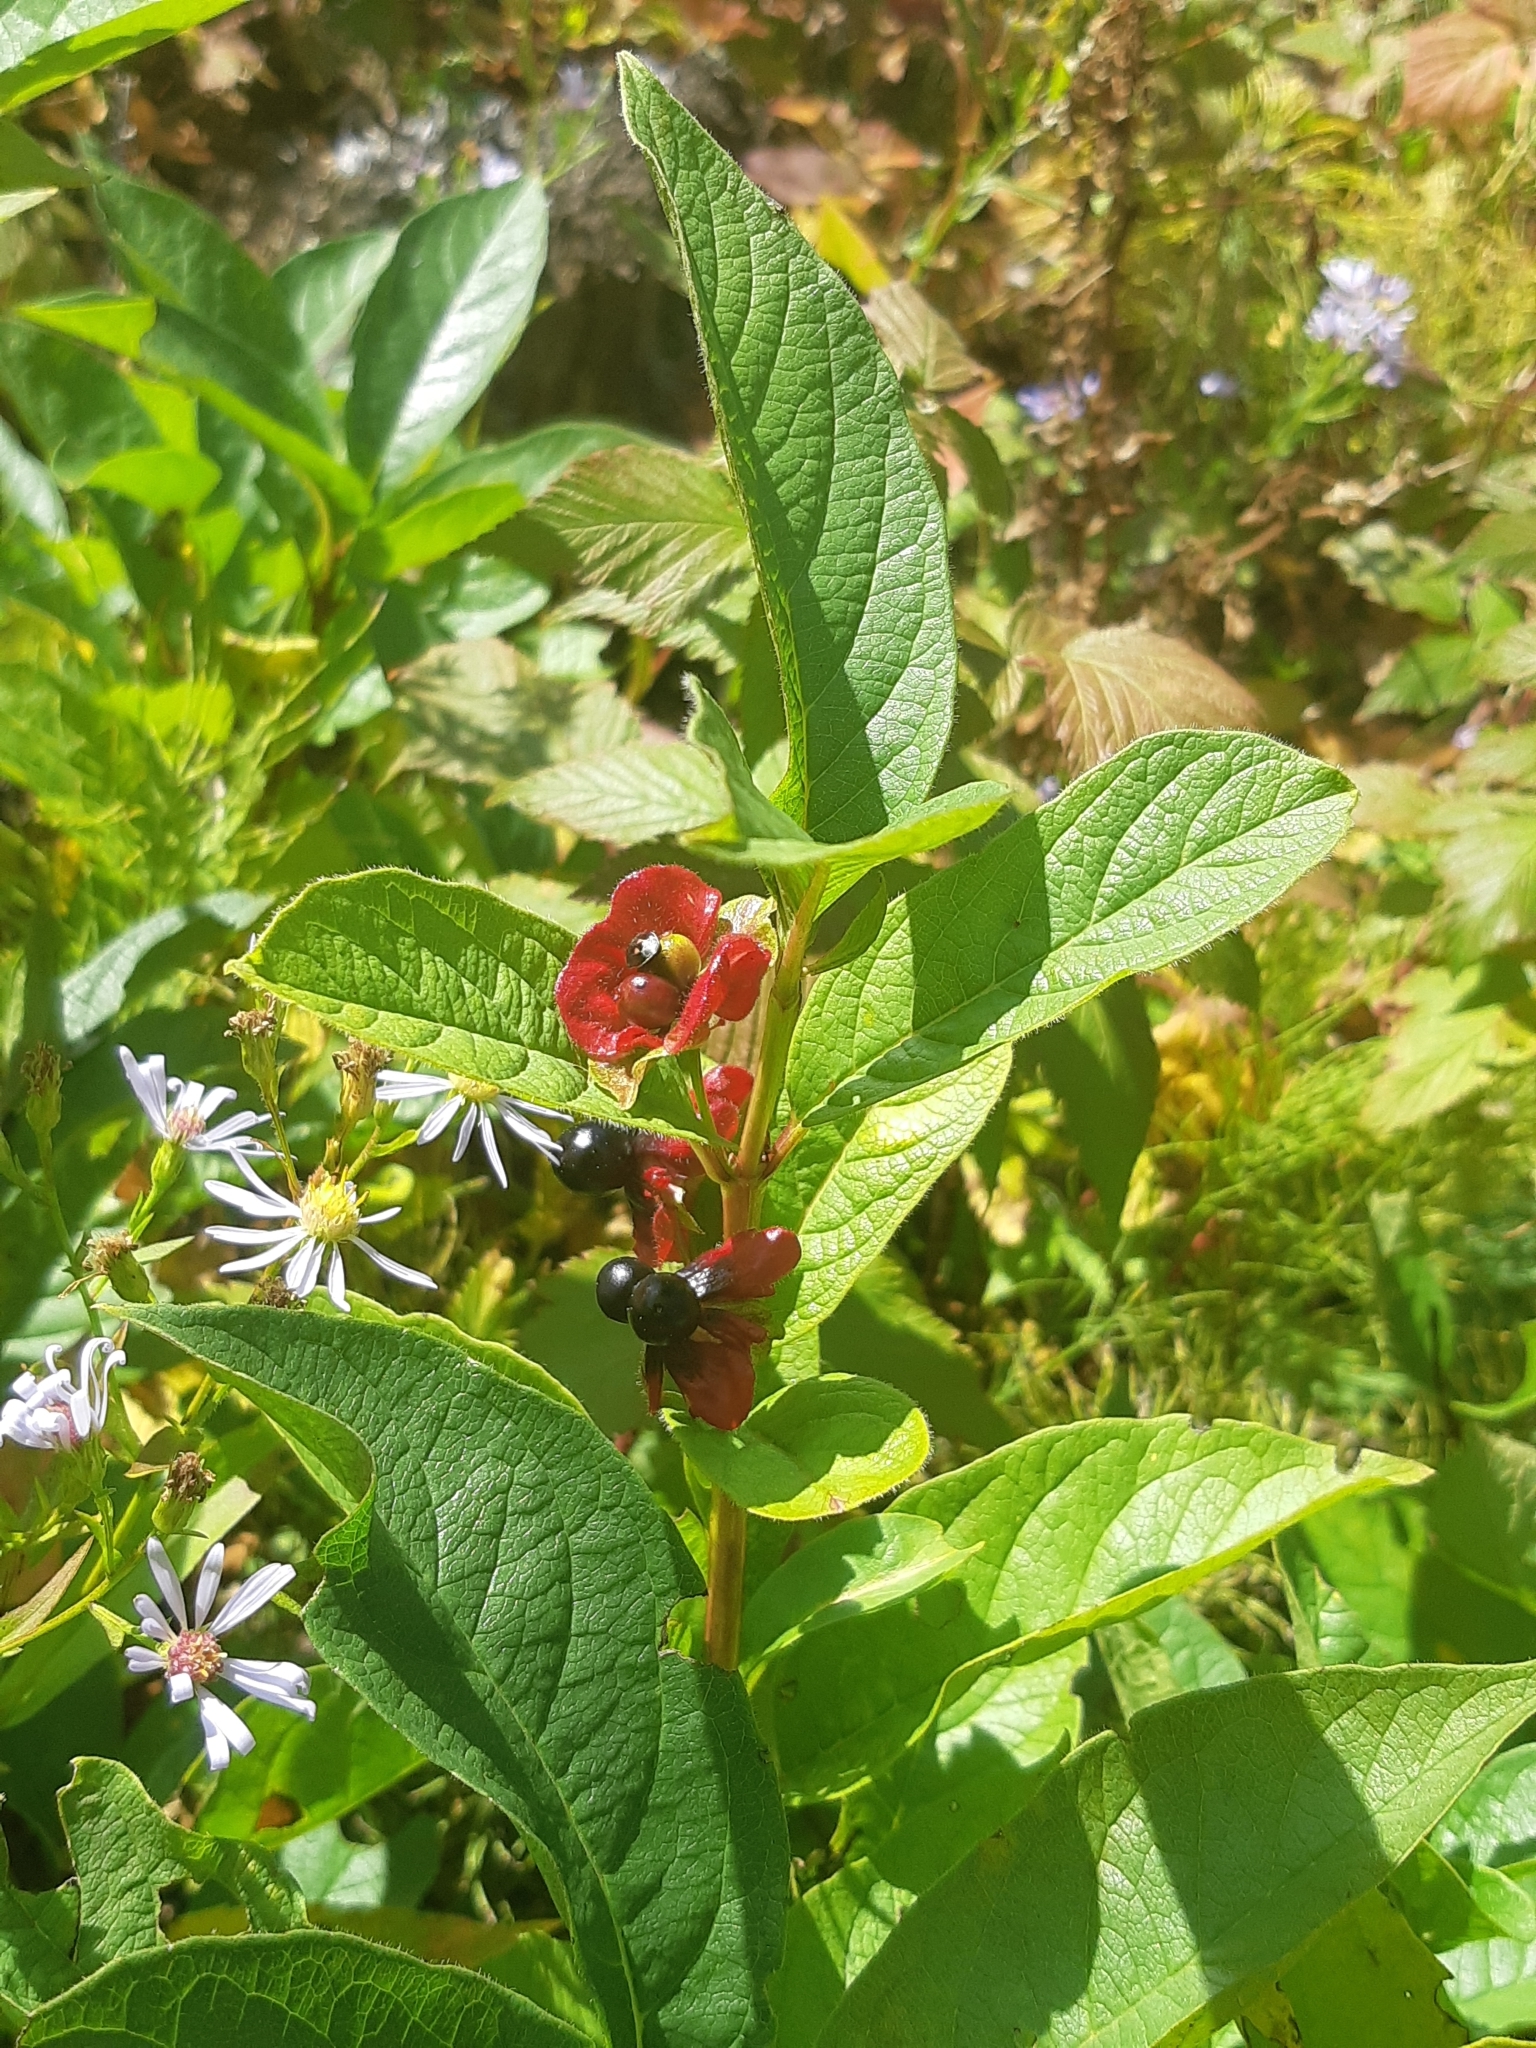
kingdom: Plantae
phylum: Tracheophyta
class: Magnoliopsida
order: Dipsacales
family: Caprifoliaceae
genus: Lonicera
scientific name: Lonicera involucrata
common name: Californian honeysuckle
